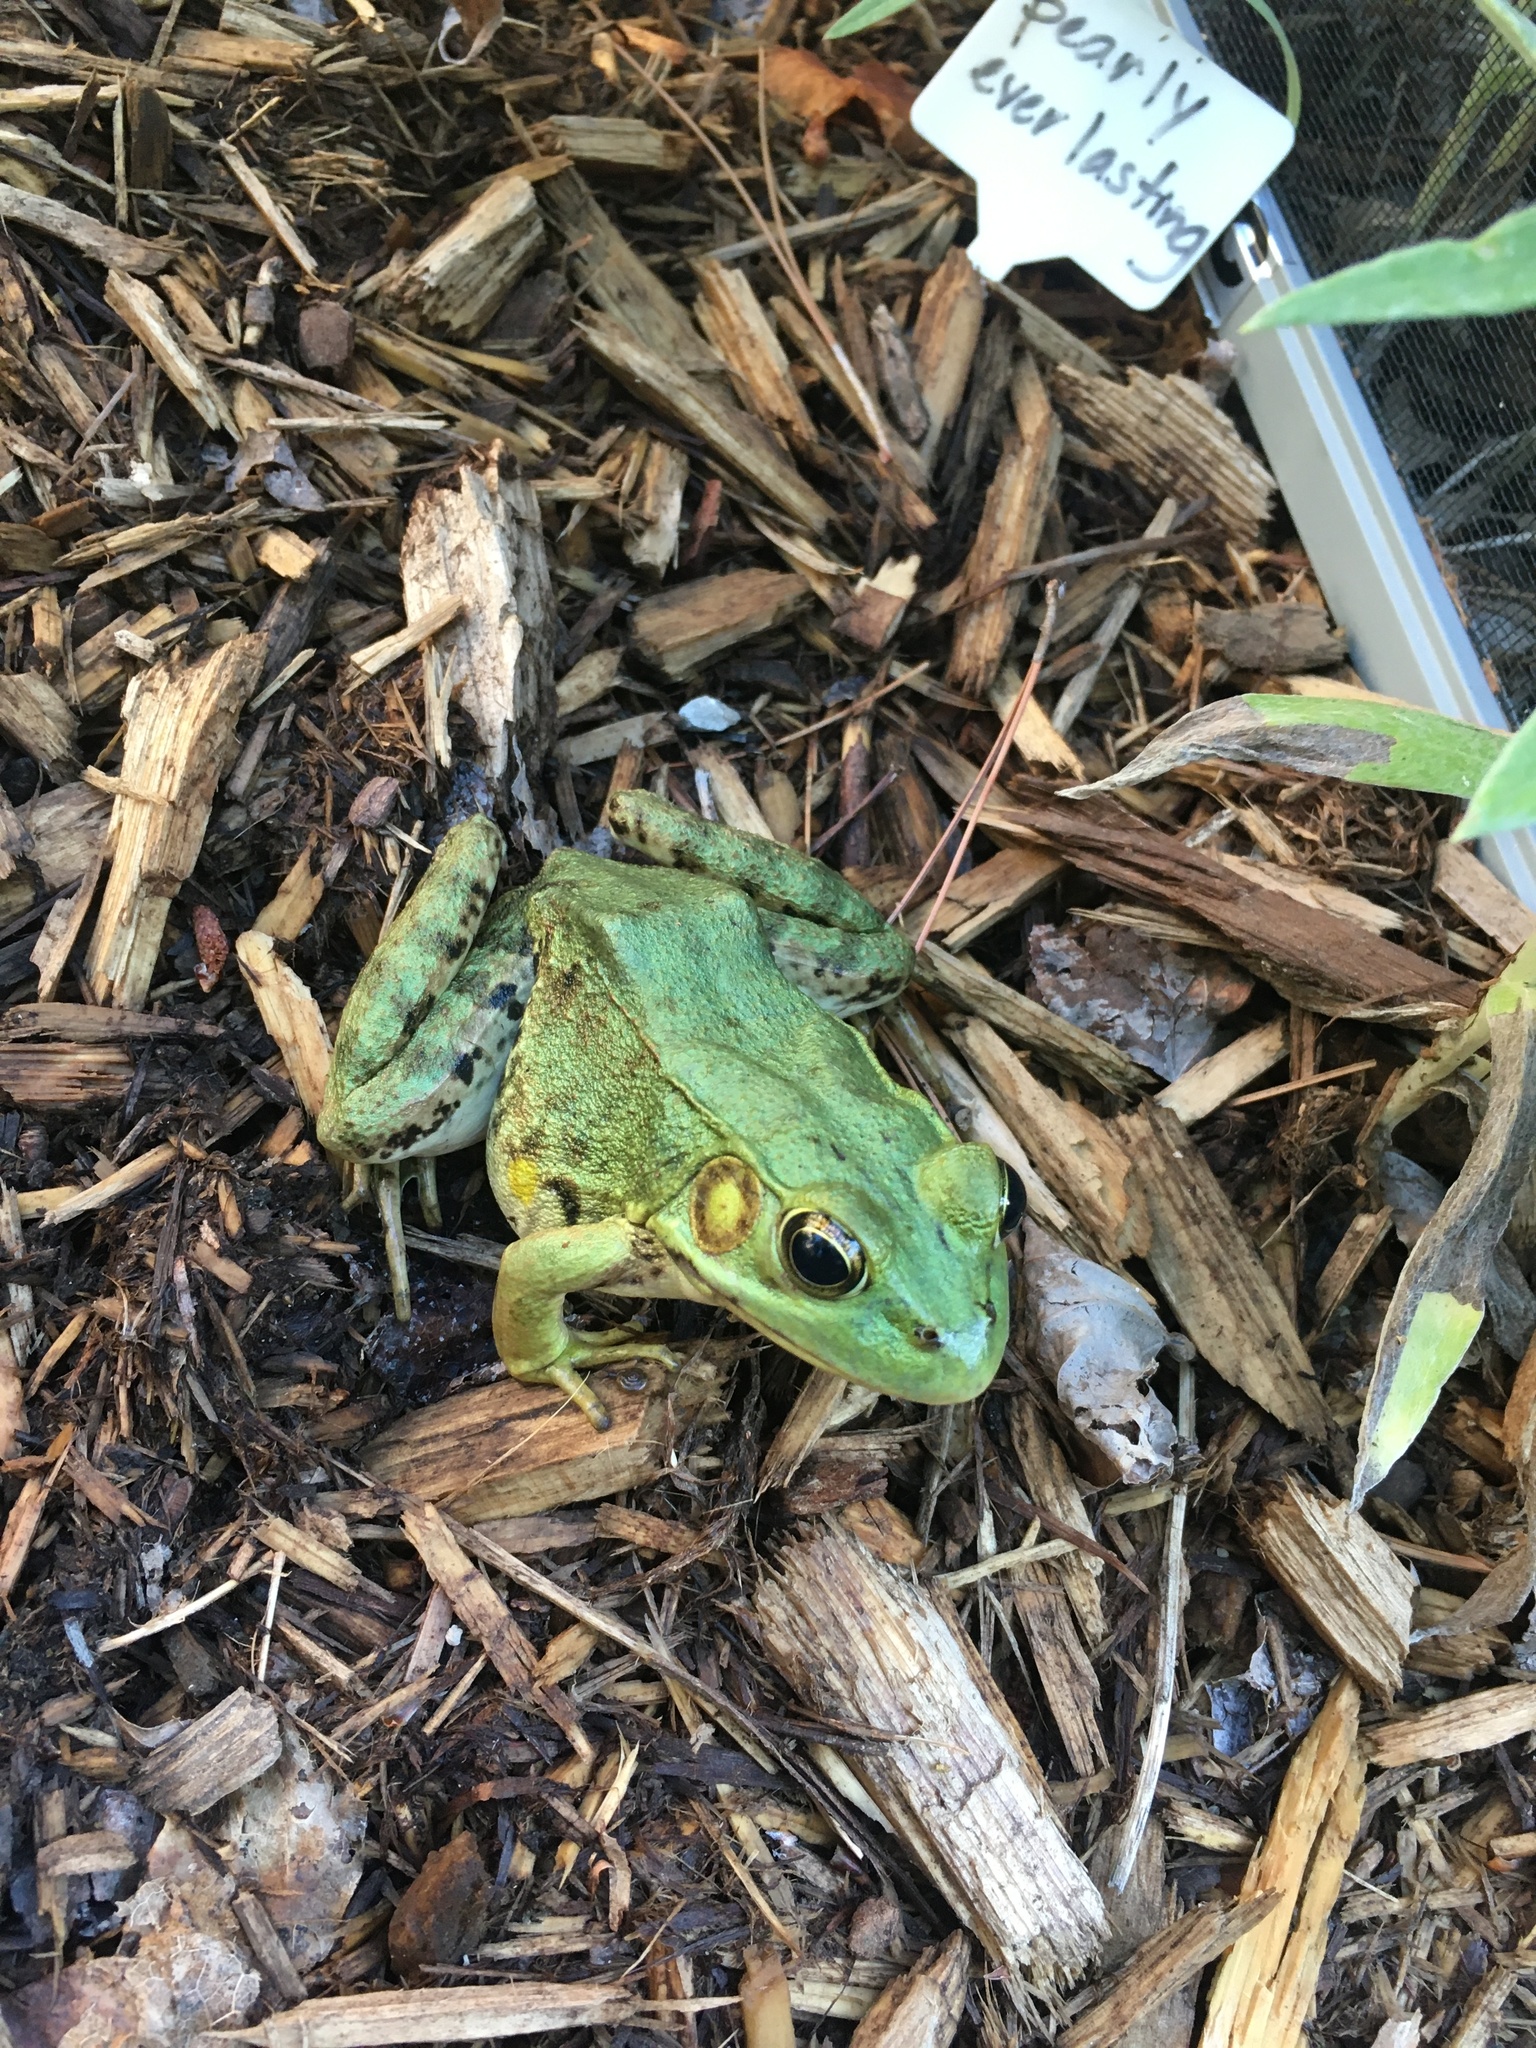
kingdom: Animalia
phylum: Chordata
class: Amphibia
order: Anura
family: Ranidae
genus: Lithobates
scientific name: Lithobates clamitans
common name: Green frog
